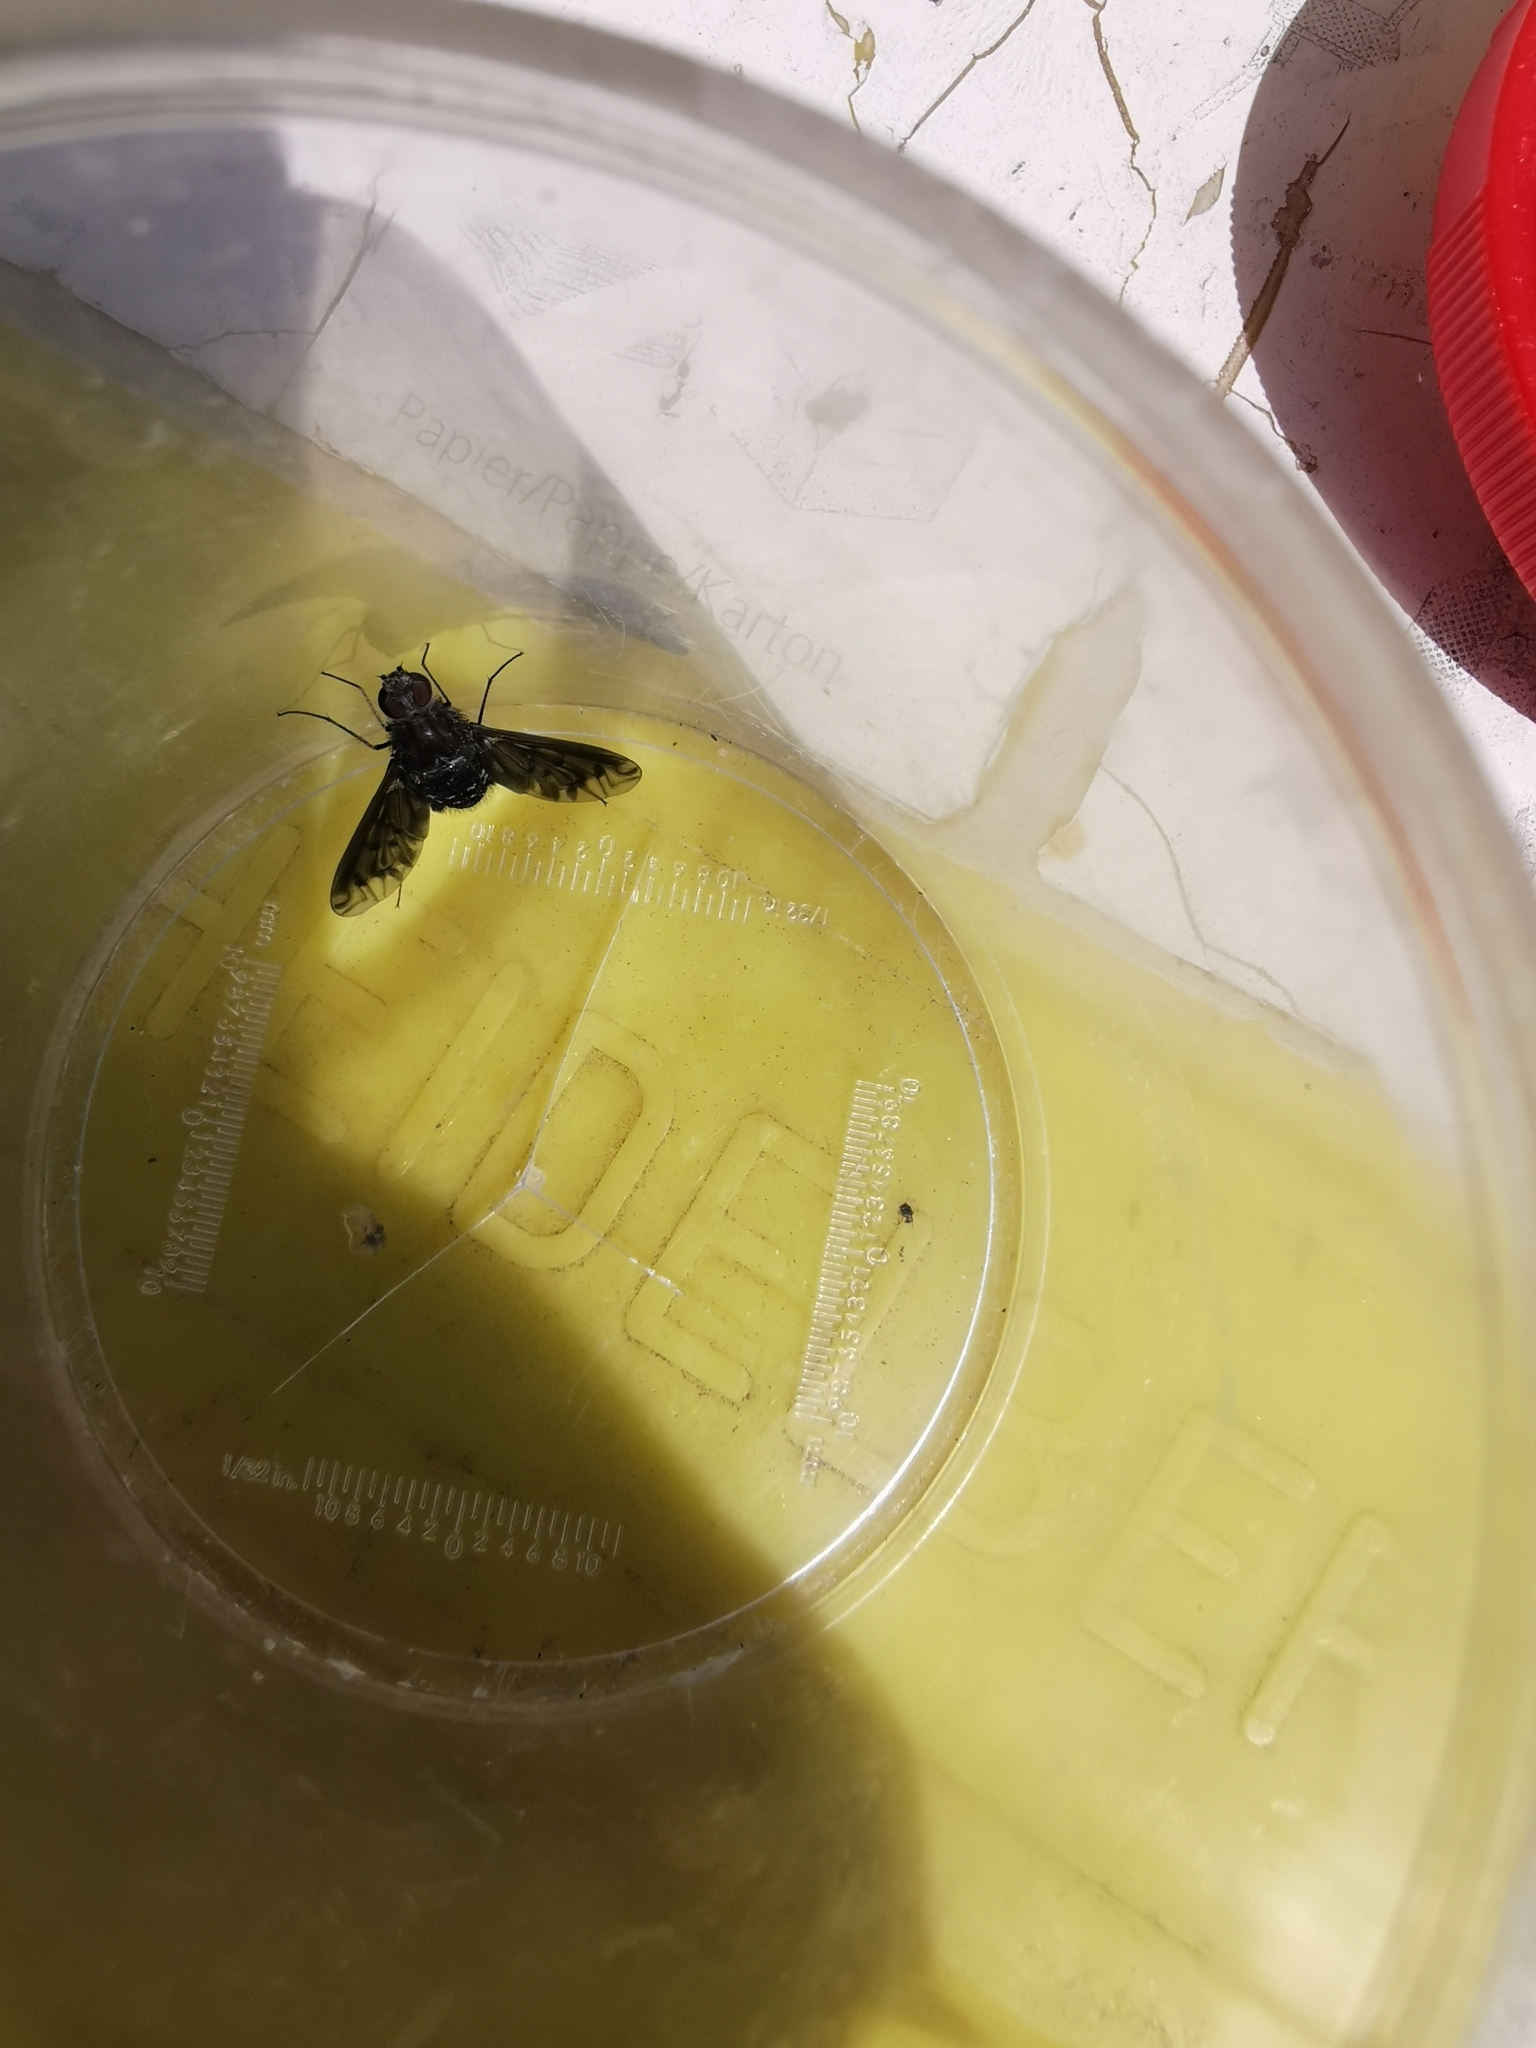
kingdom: Animalia
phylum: Arthropoda
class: Insecta
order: Diptera
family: Bombyliidae
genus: Anthrax
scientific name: Anthrax anthrax
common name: Anthracite bee-fly
